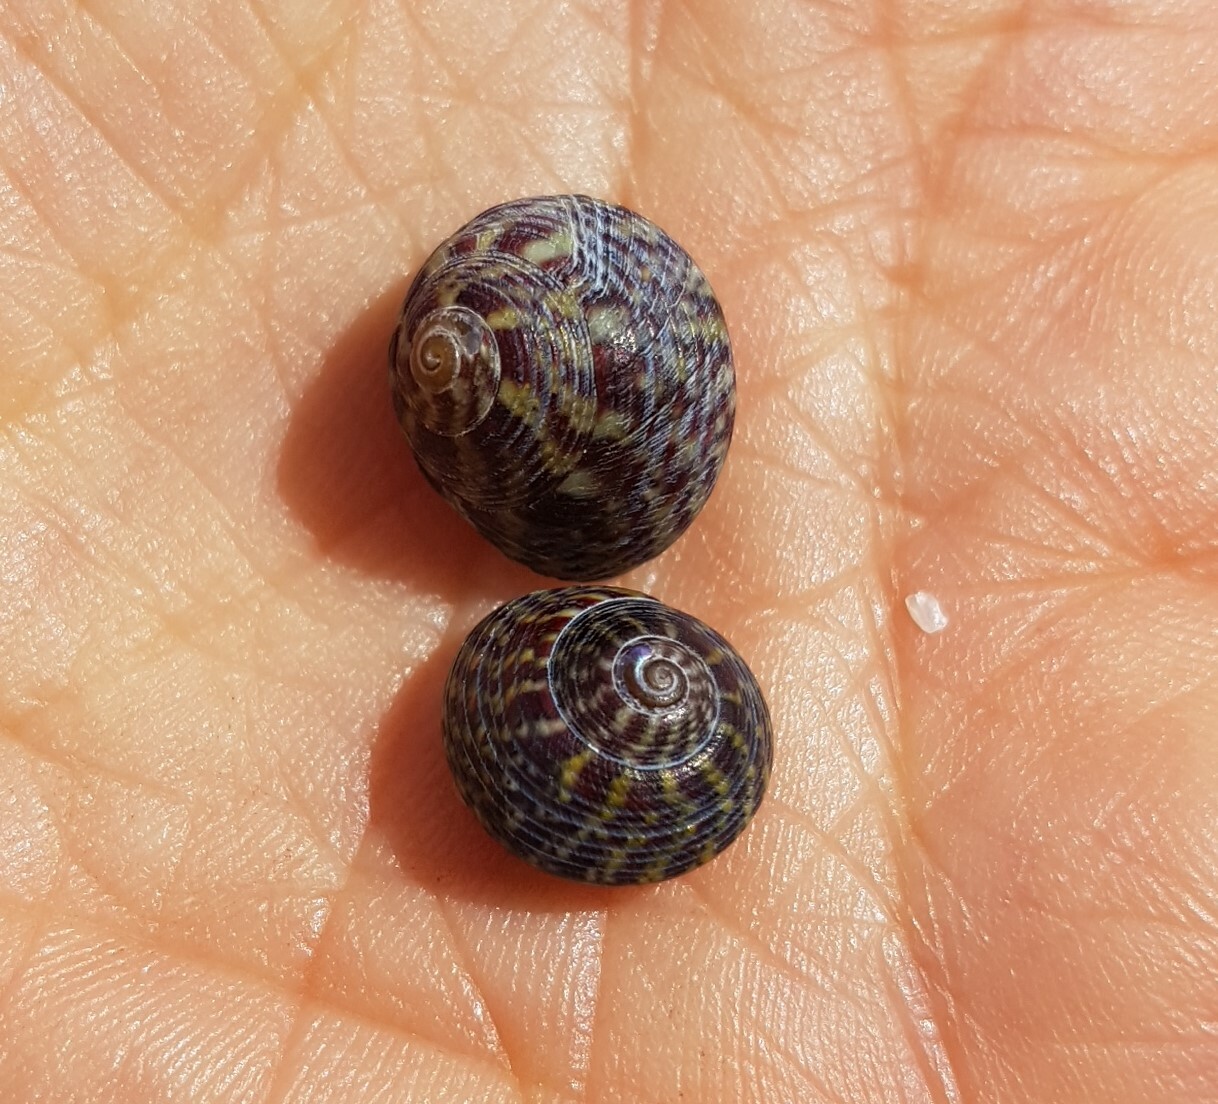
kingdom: Animalia
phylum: Mollusca
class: Gastropoda
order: Trochida
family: Trochidae
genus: Steromphala
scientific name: Steromphala umbilicalis
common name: Flat top shell
